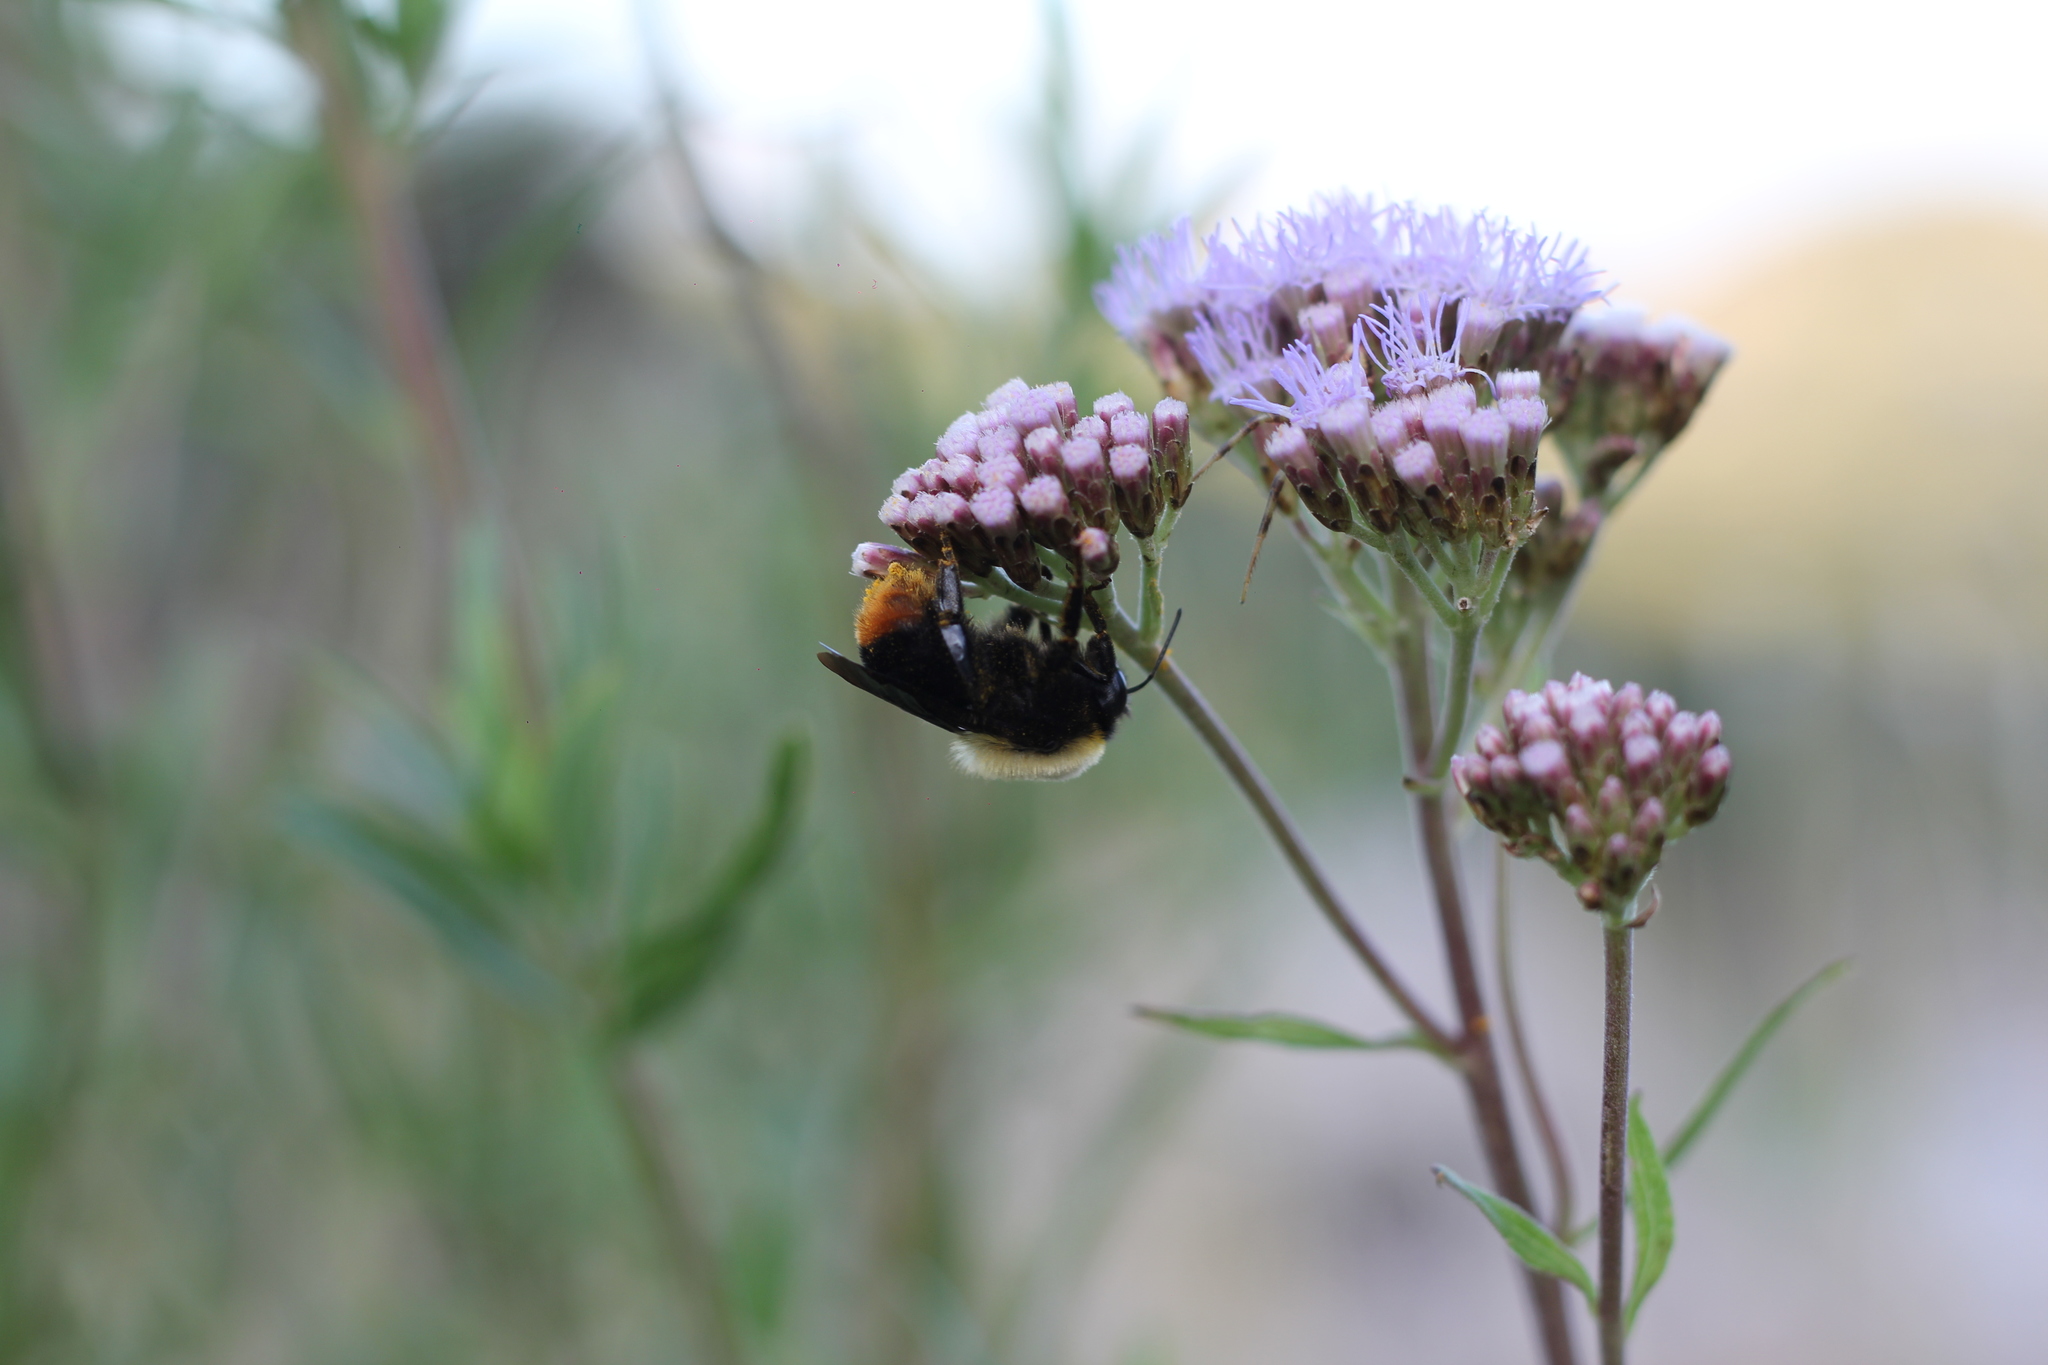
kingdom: Animalia
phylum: Arthropoda
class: Insecta
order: Hymenoptera
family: Apidae
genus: Bombus
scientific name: Bombus bellicosus
